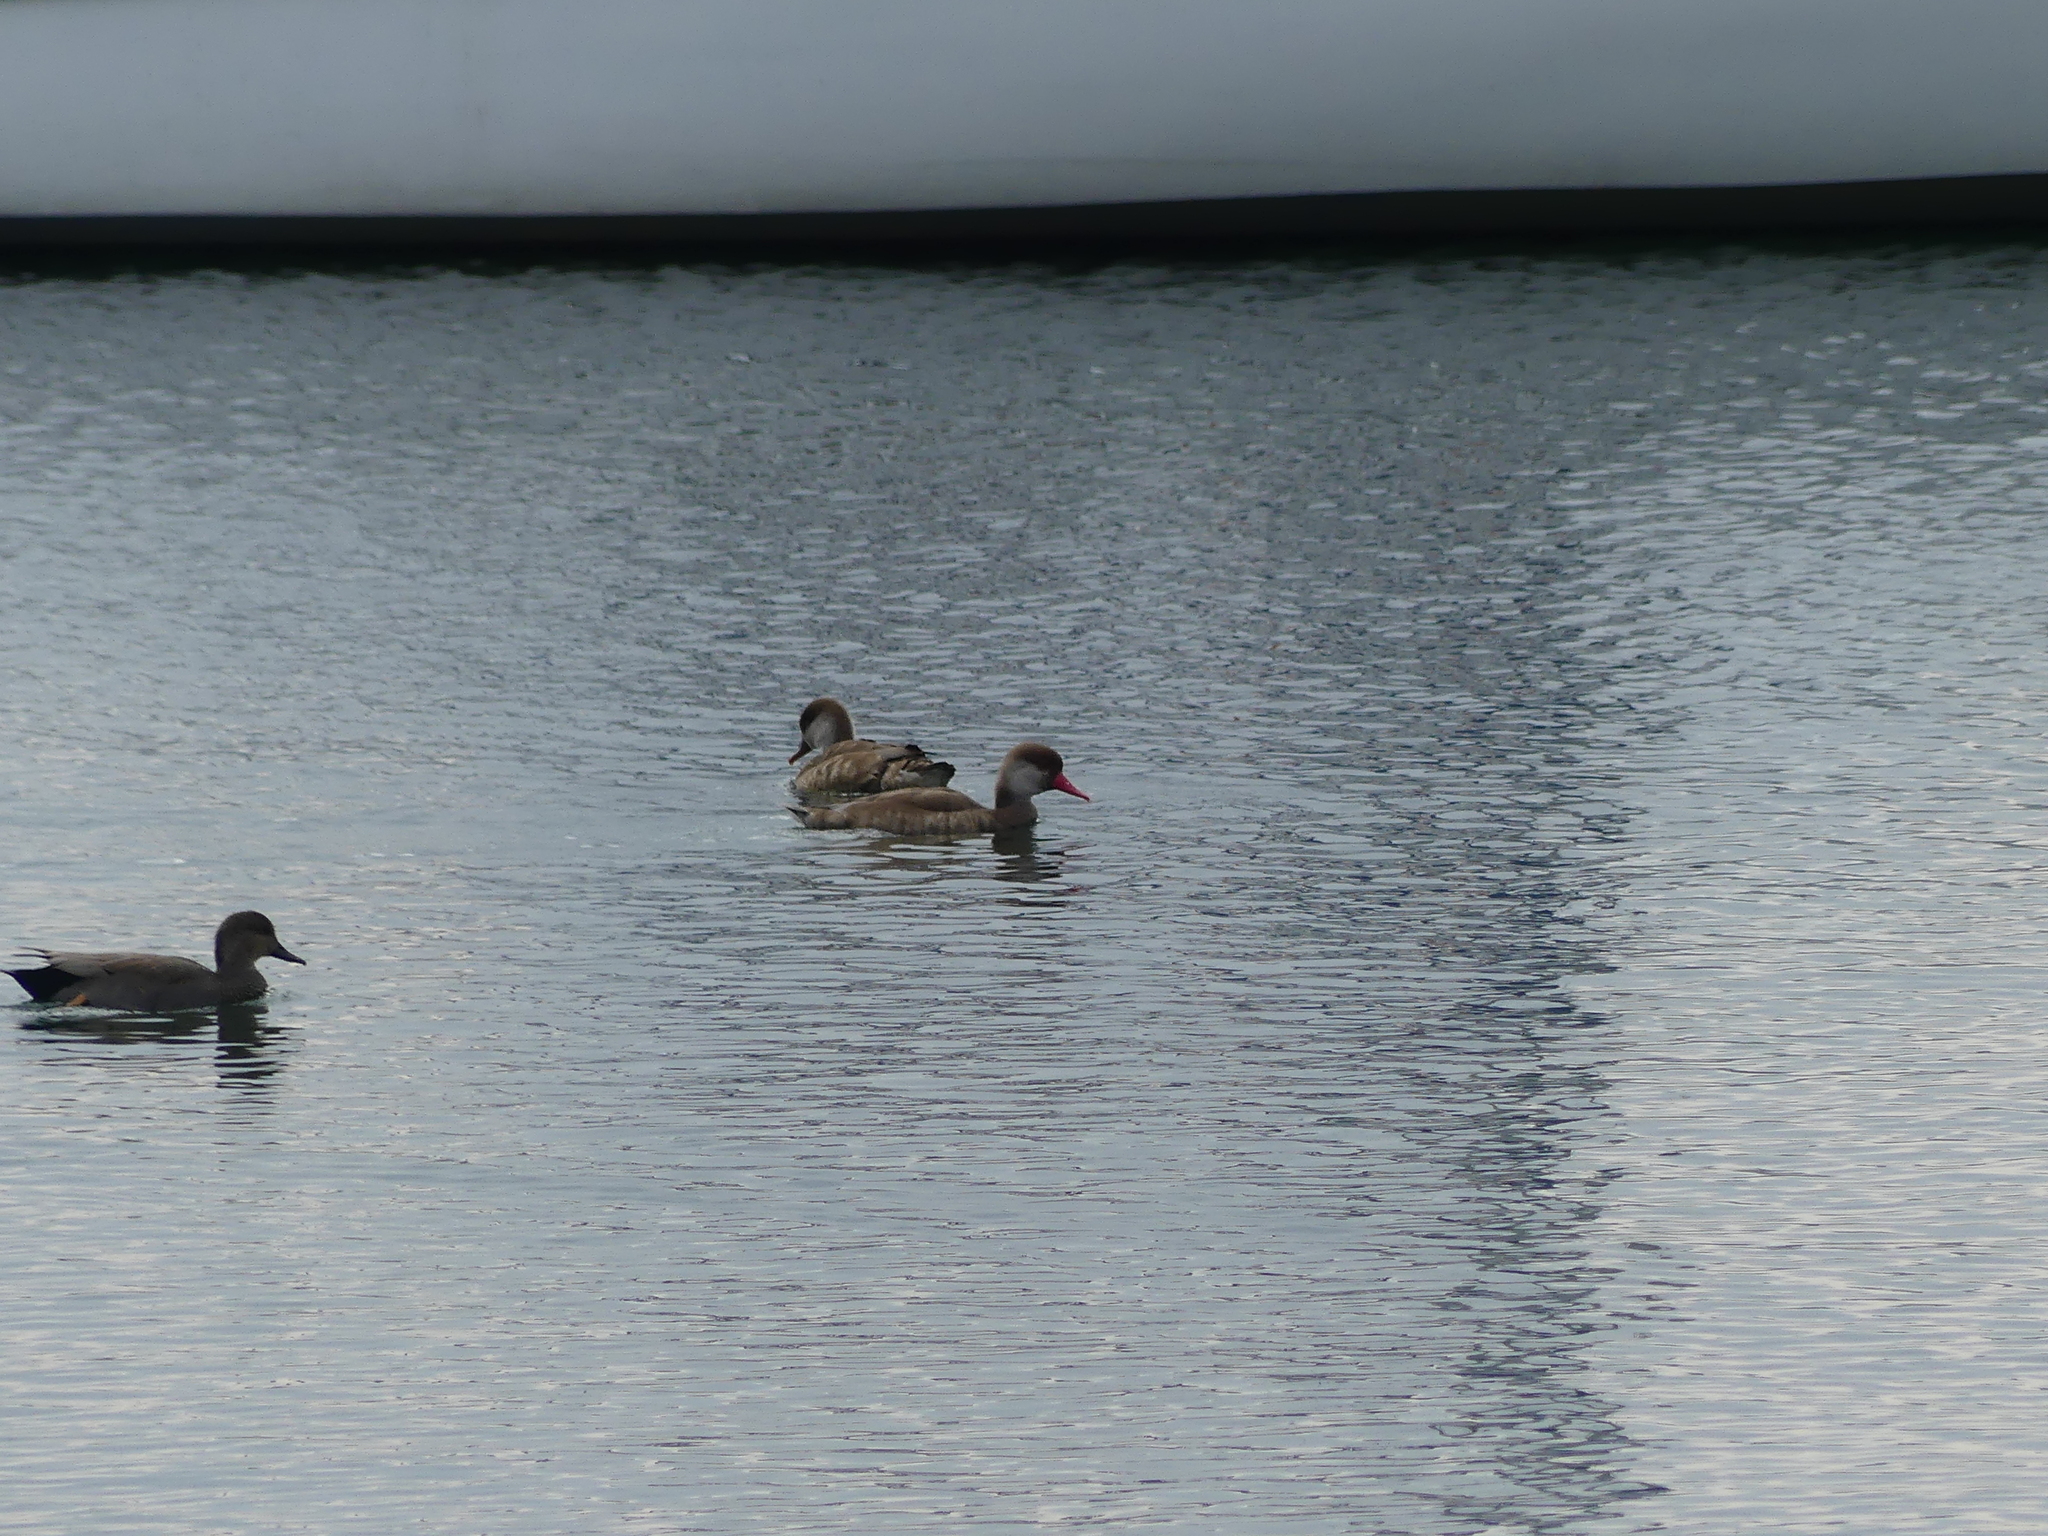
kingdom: Animalia
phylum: Chordata
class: Aves
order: Anseriformes
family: Anatidae
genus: Netta
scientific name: Netta rufina
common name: Red-crested pochard
